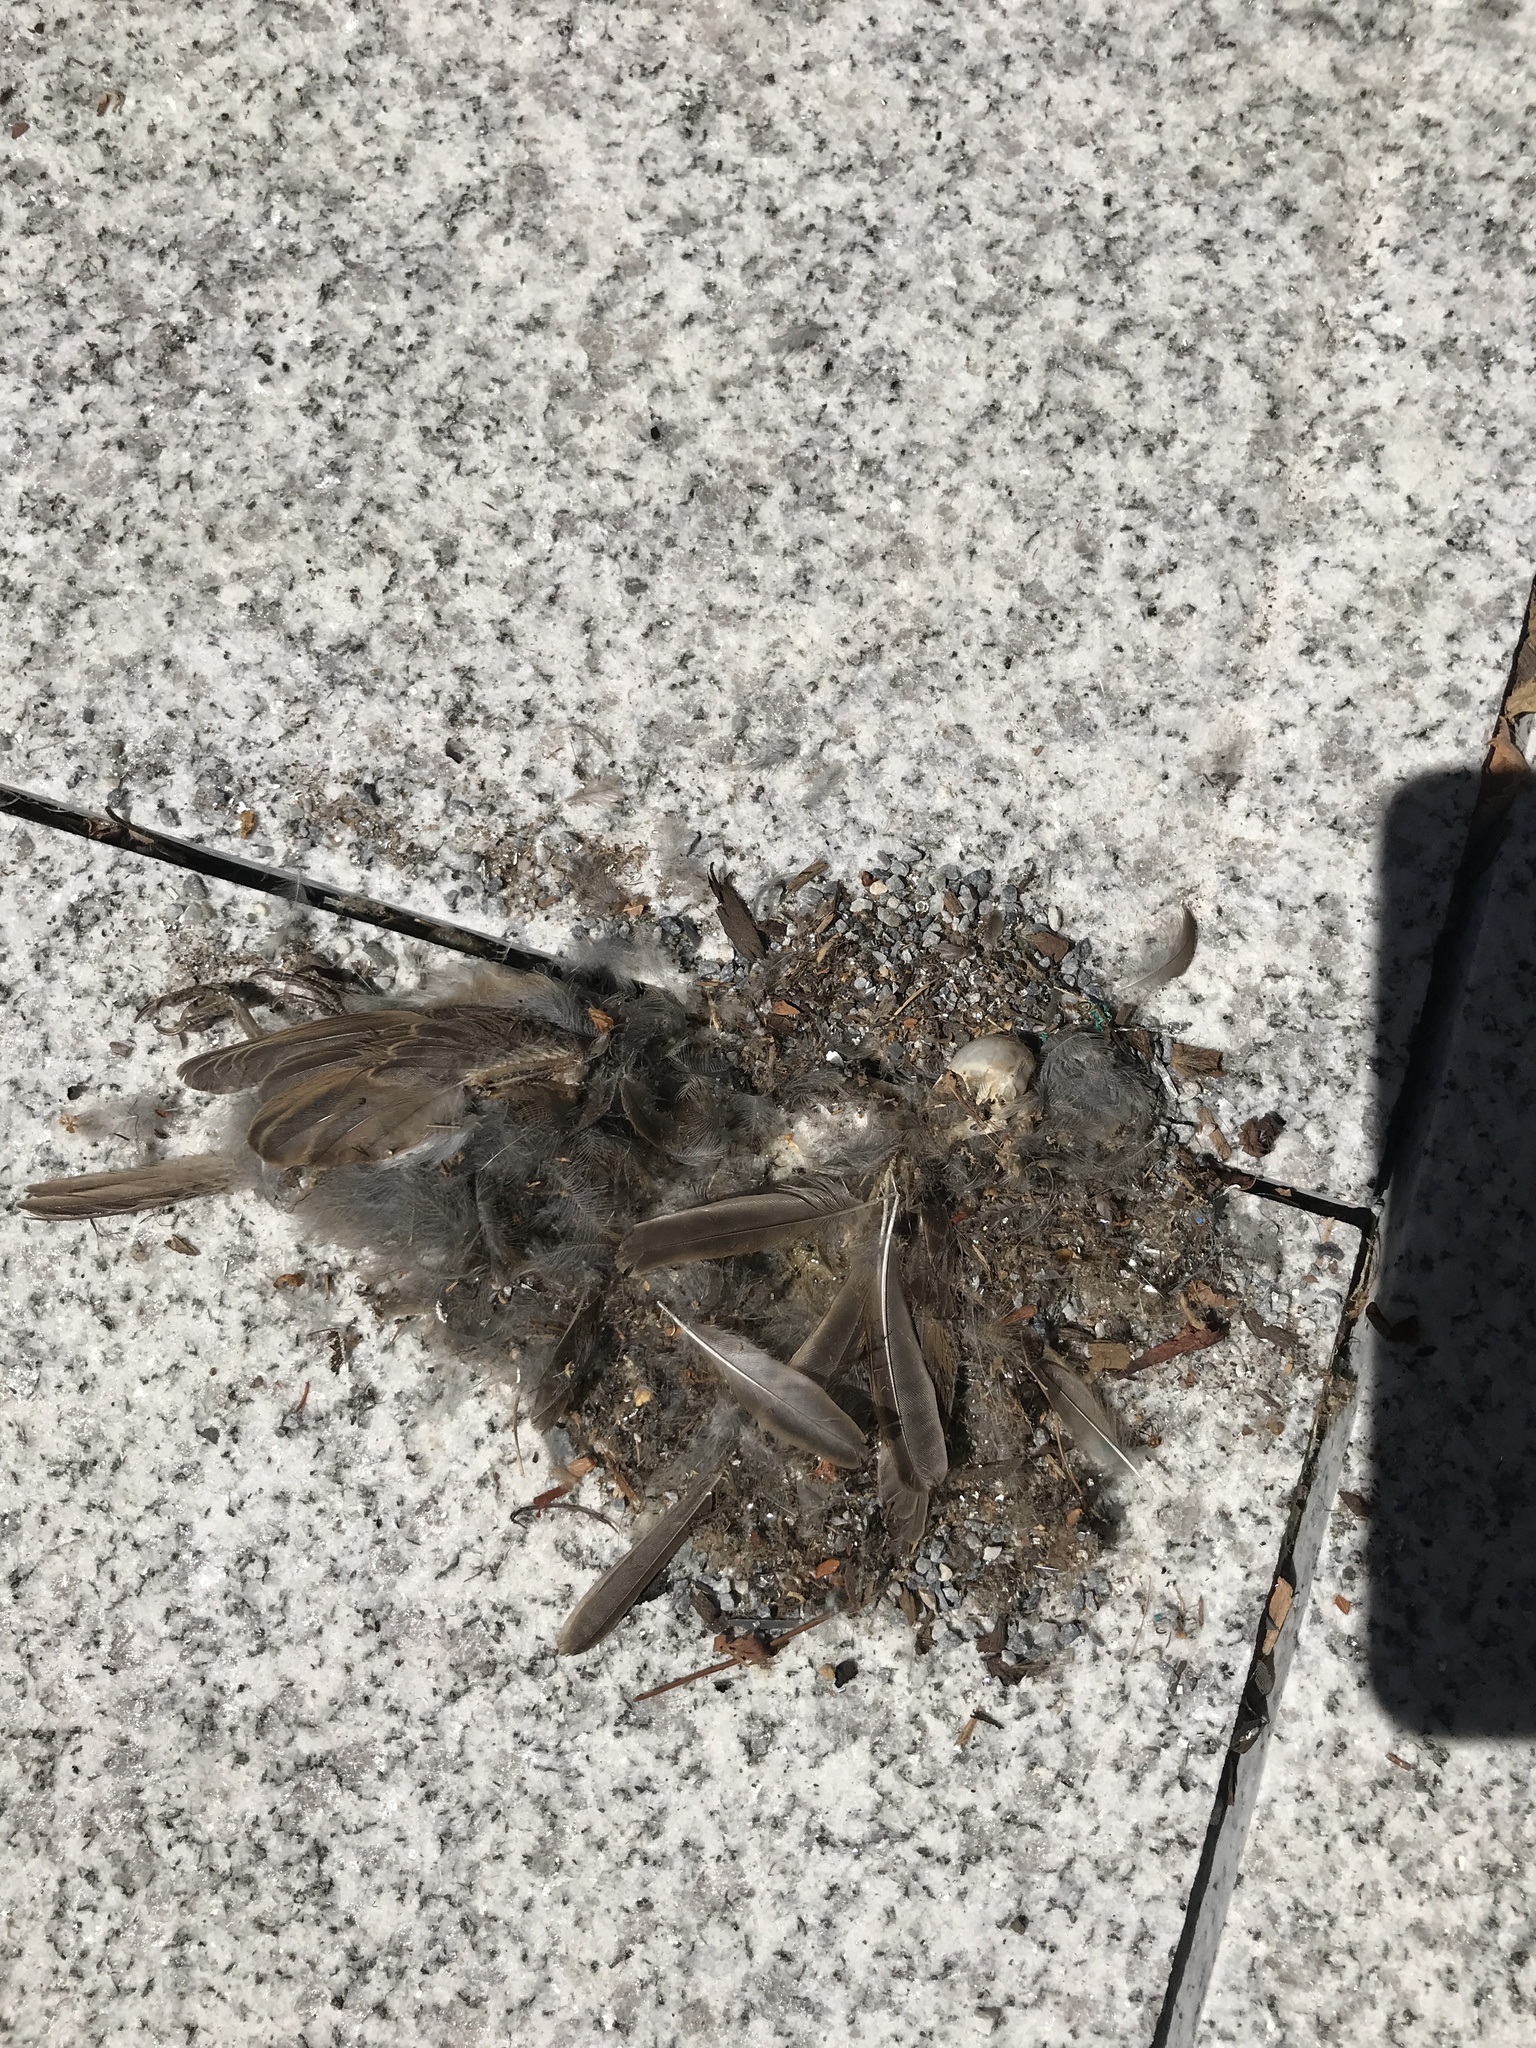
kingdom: Animalia
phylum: Chordata
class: Aves
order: Passeriformes
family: Passeridae
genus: Passer
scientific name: Passer domesticus
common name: House sparrow
